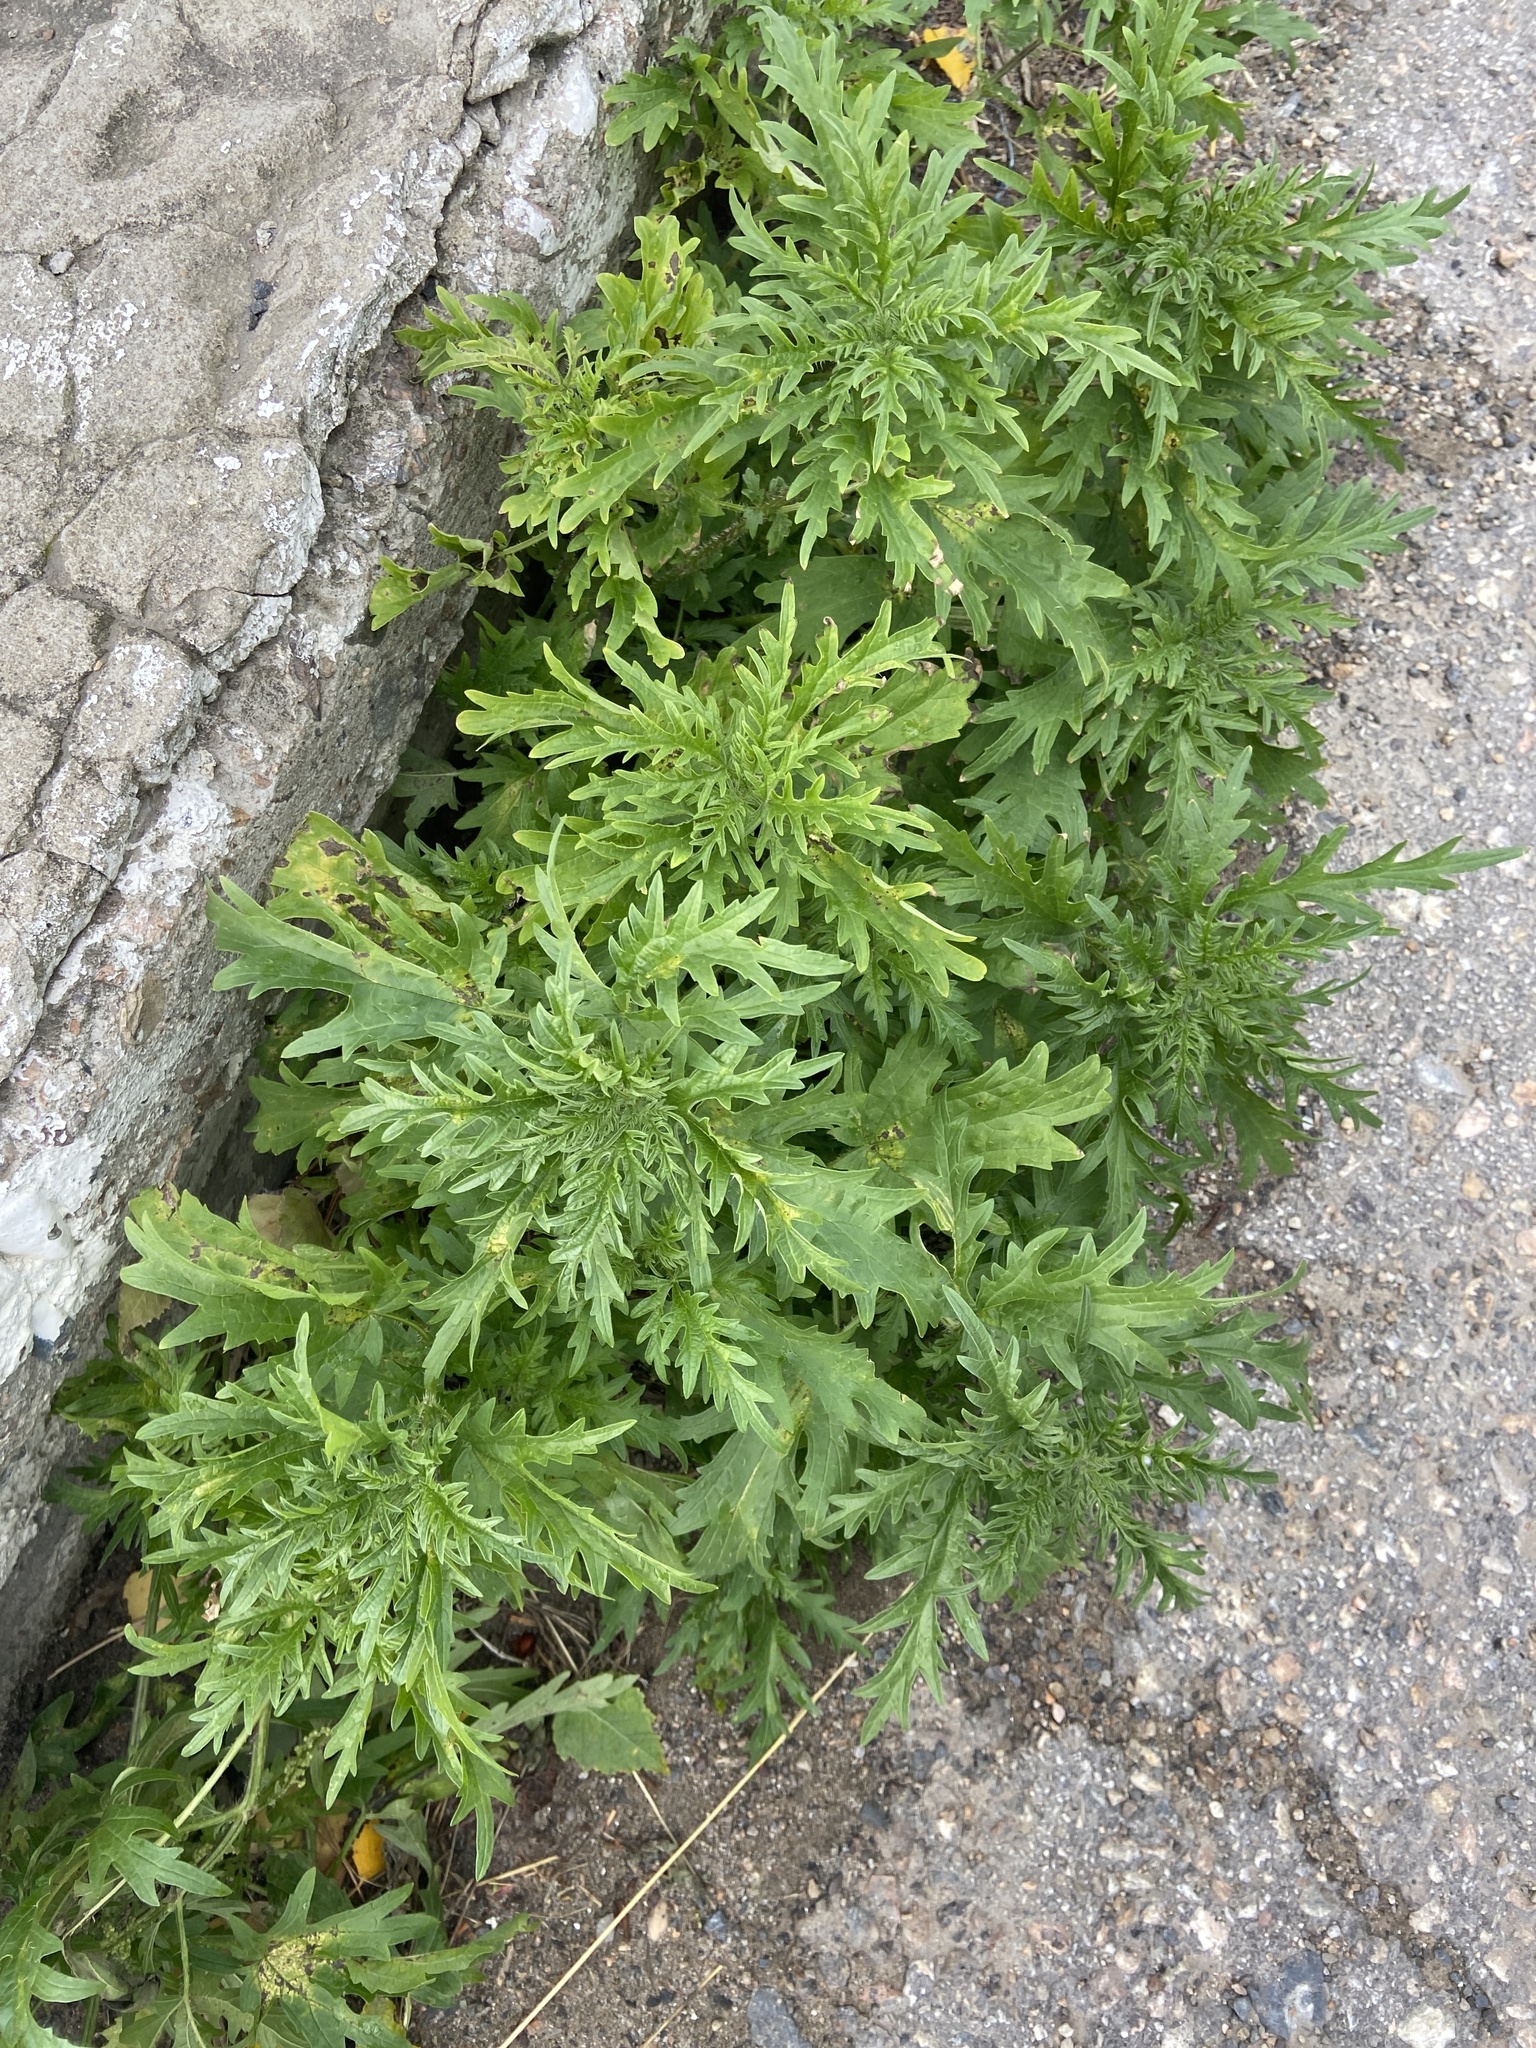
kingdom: Plantae
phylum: Tracheophyta
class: Magnoliopsida
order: Rosales
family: Urticaceae
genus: Urtica
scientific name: Urtica cannabina
